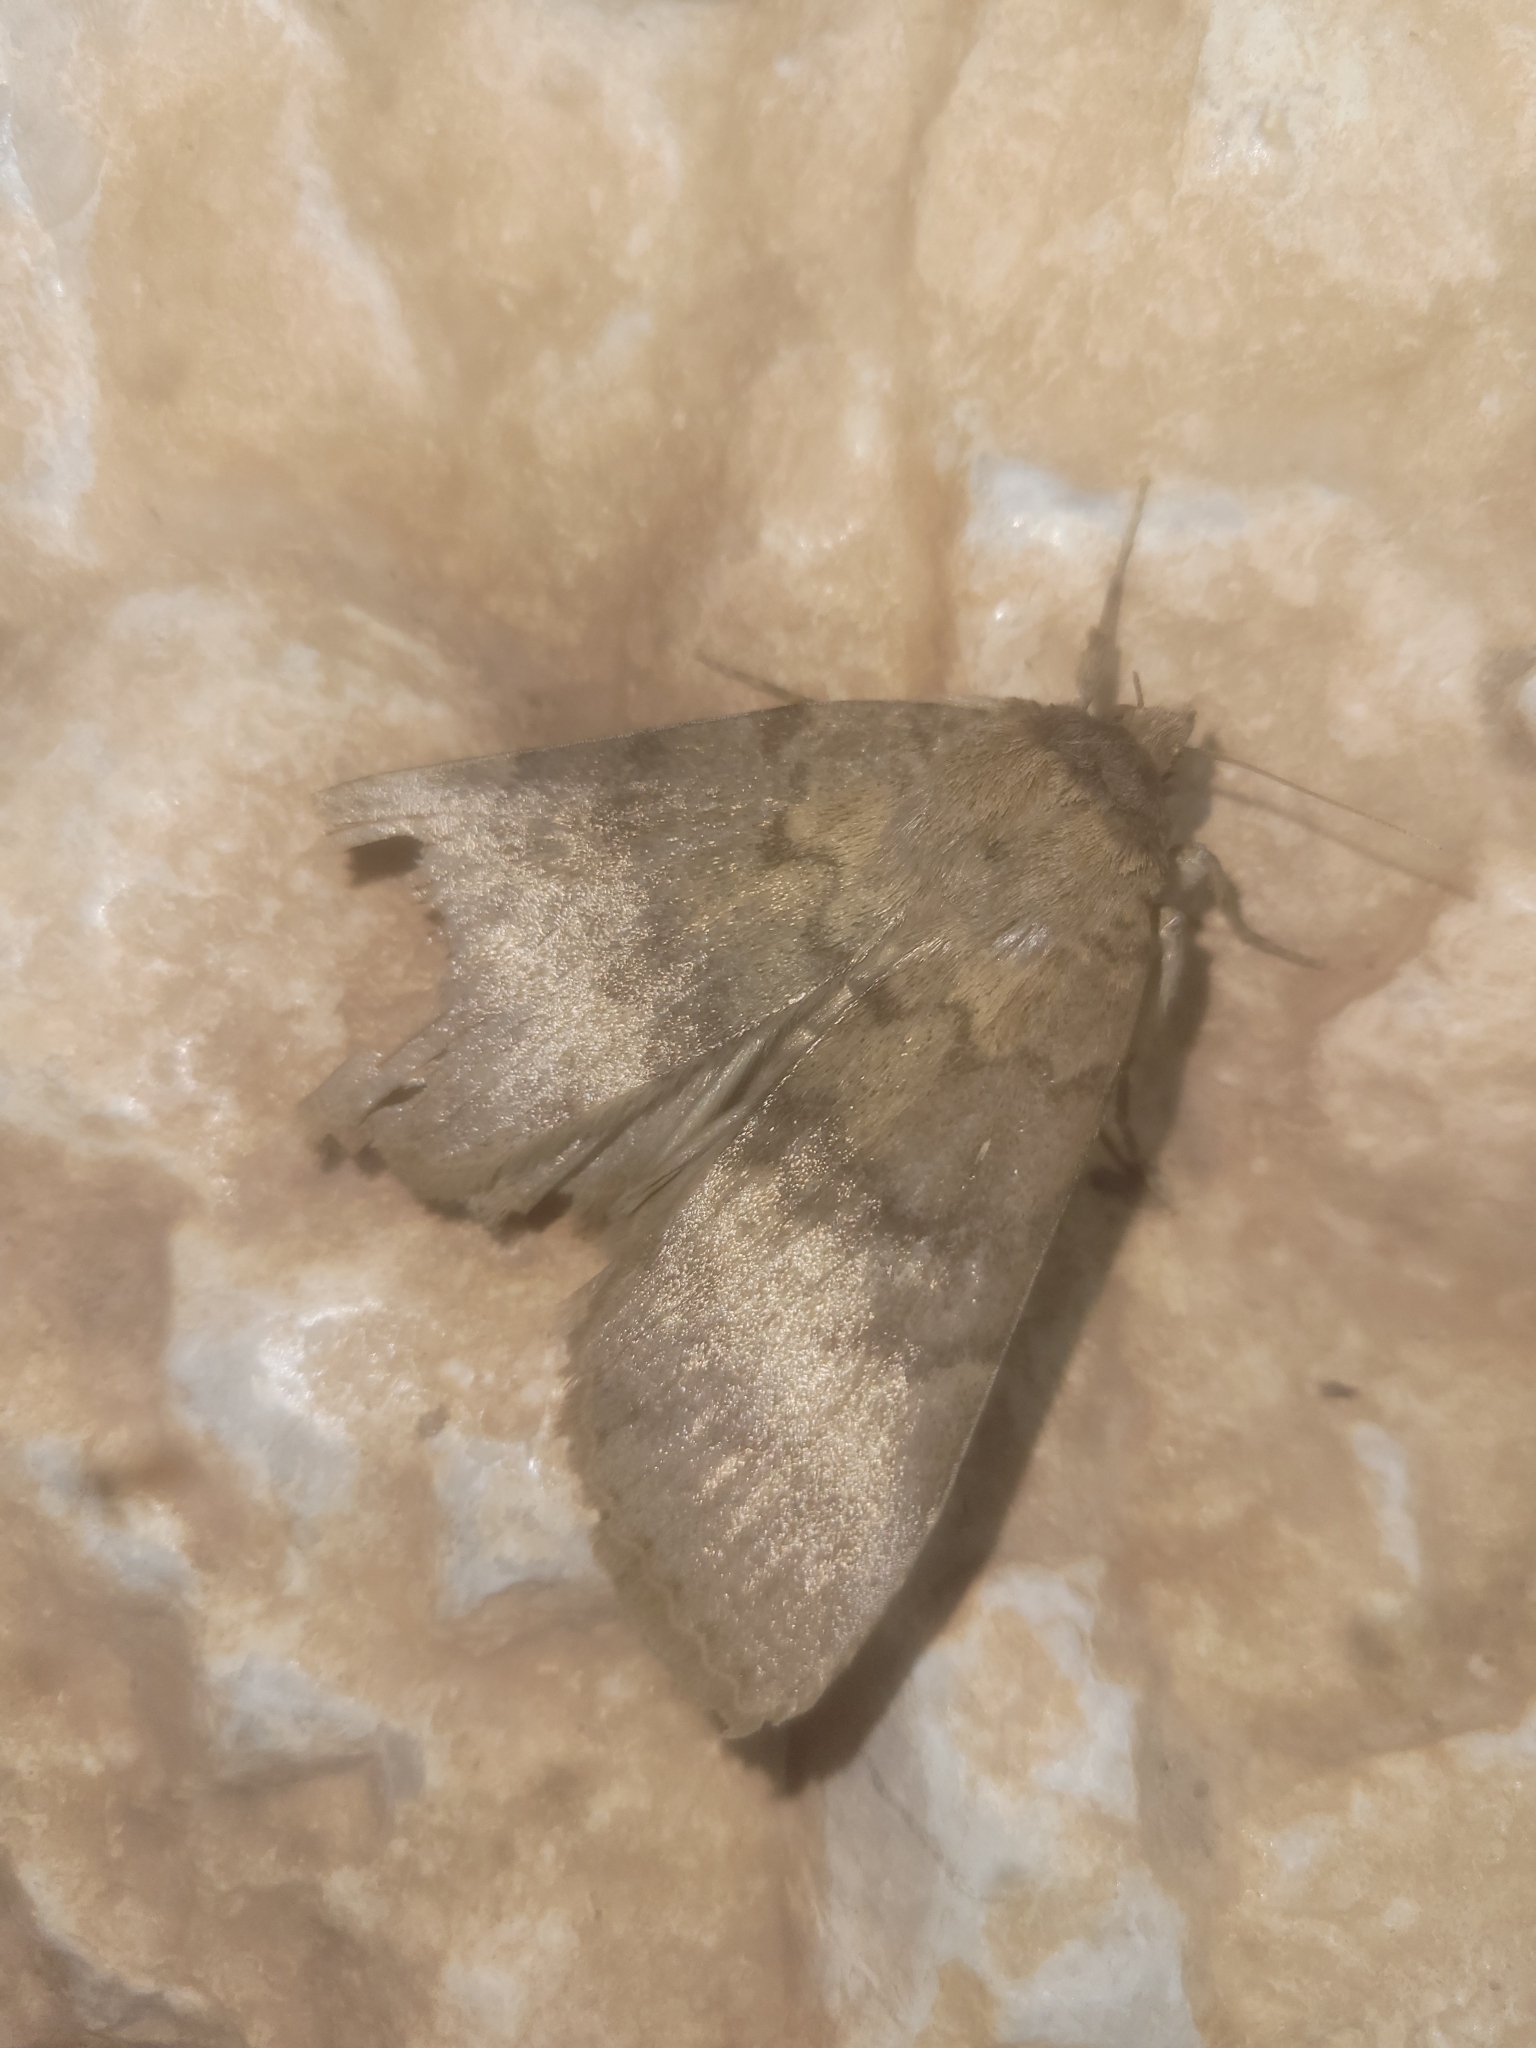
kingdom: Animalia
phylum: Arthropoda
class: Insecta
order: Lepidoptera
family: Erebidae
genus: Apopestes
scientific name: Apopestes spectrum
